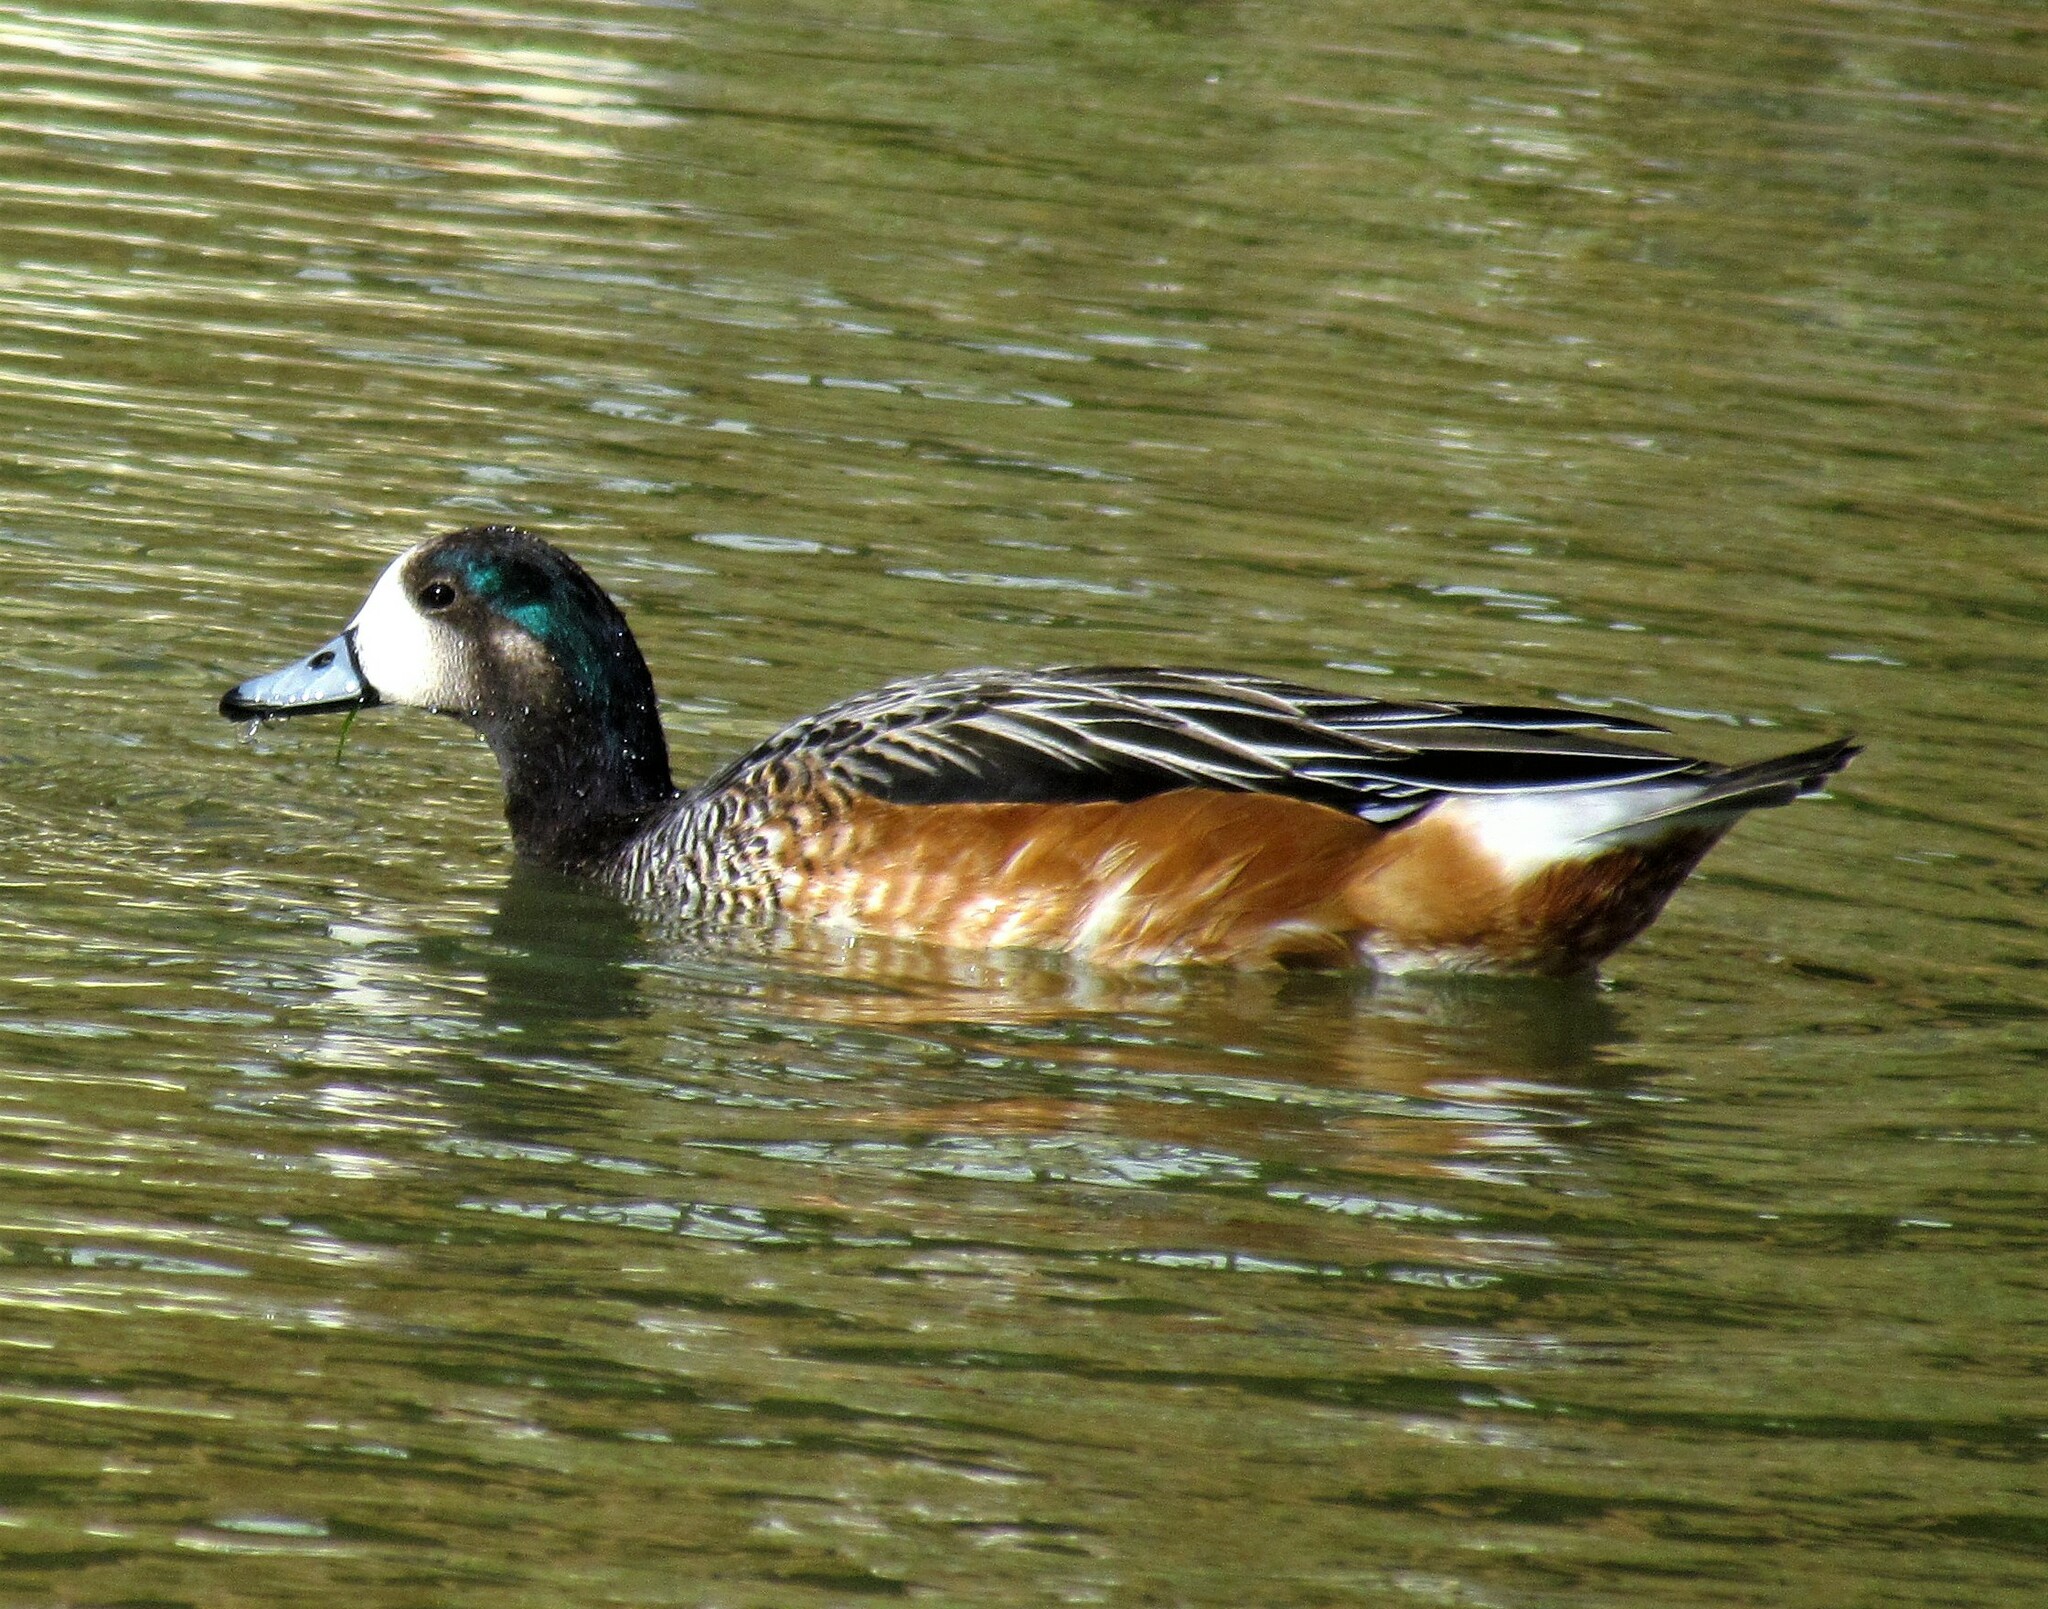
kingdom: Animalia
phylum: Chordata
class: Aves
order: Anseriformes
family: Anatidae
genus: Mareca
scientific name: Mareca sibilatrix
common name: Chiloe wigeon
